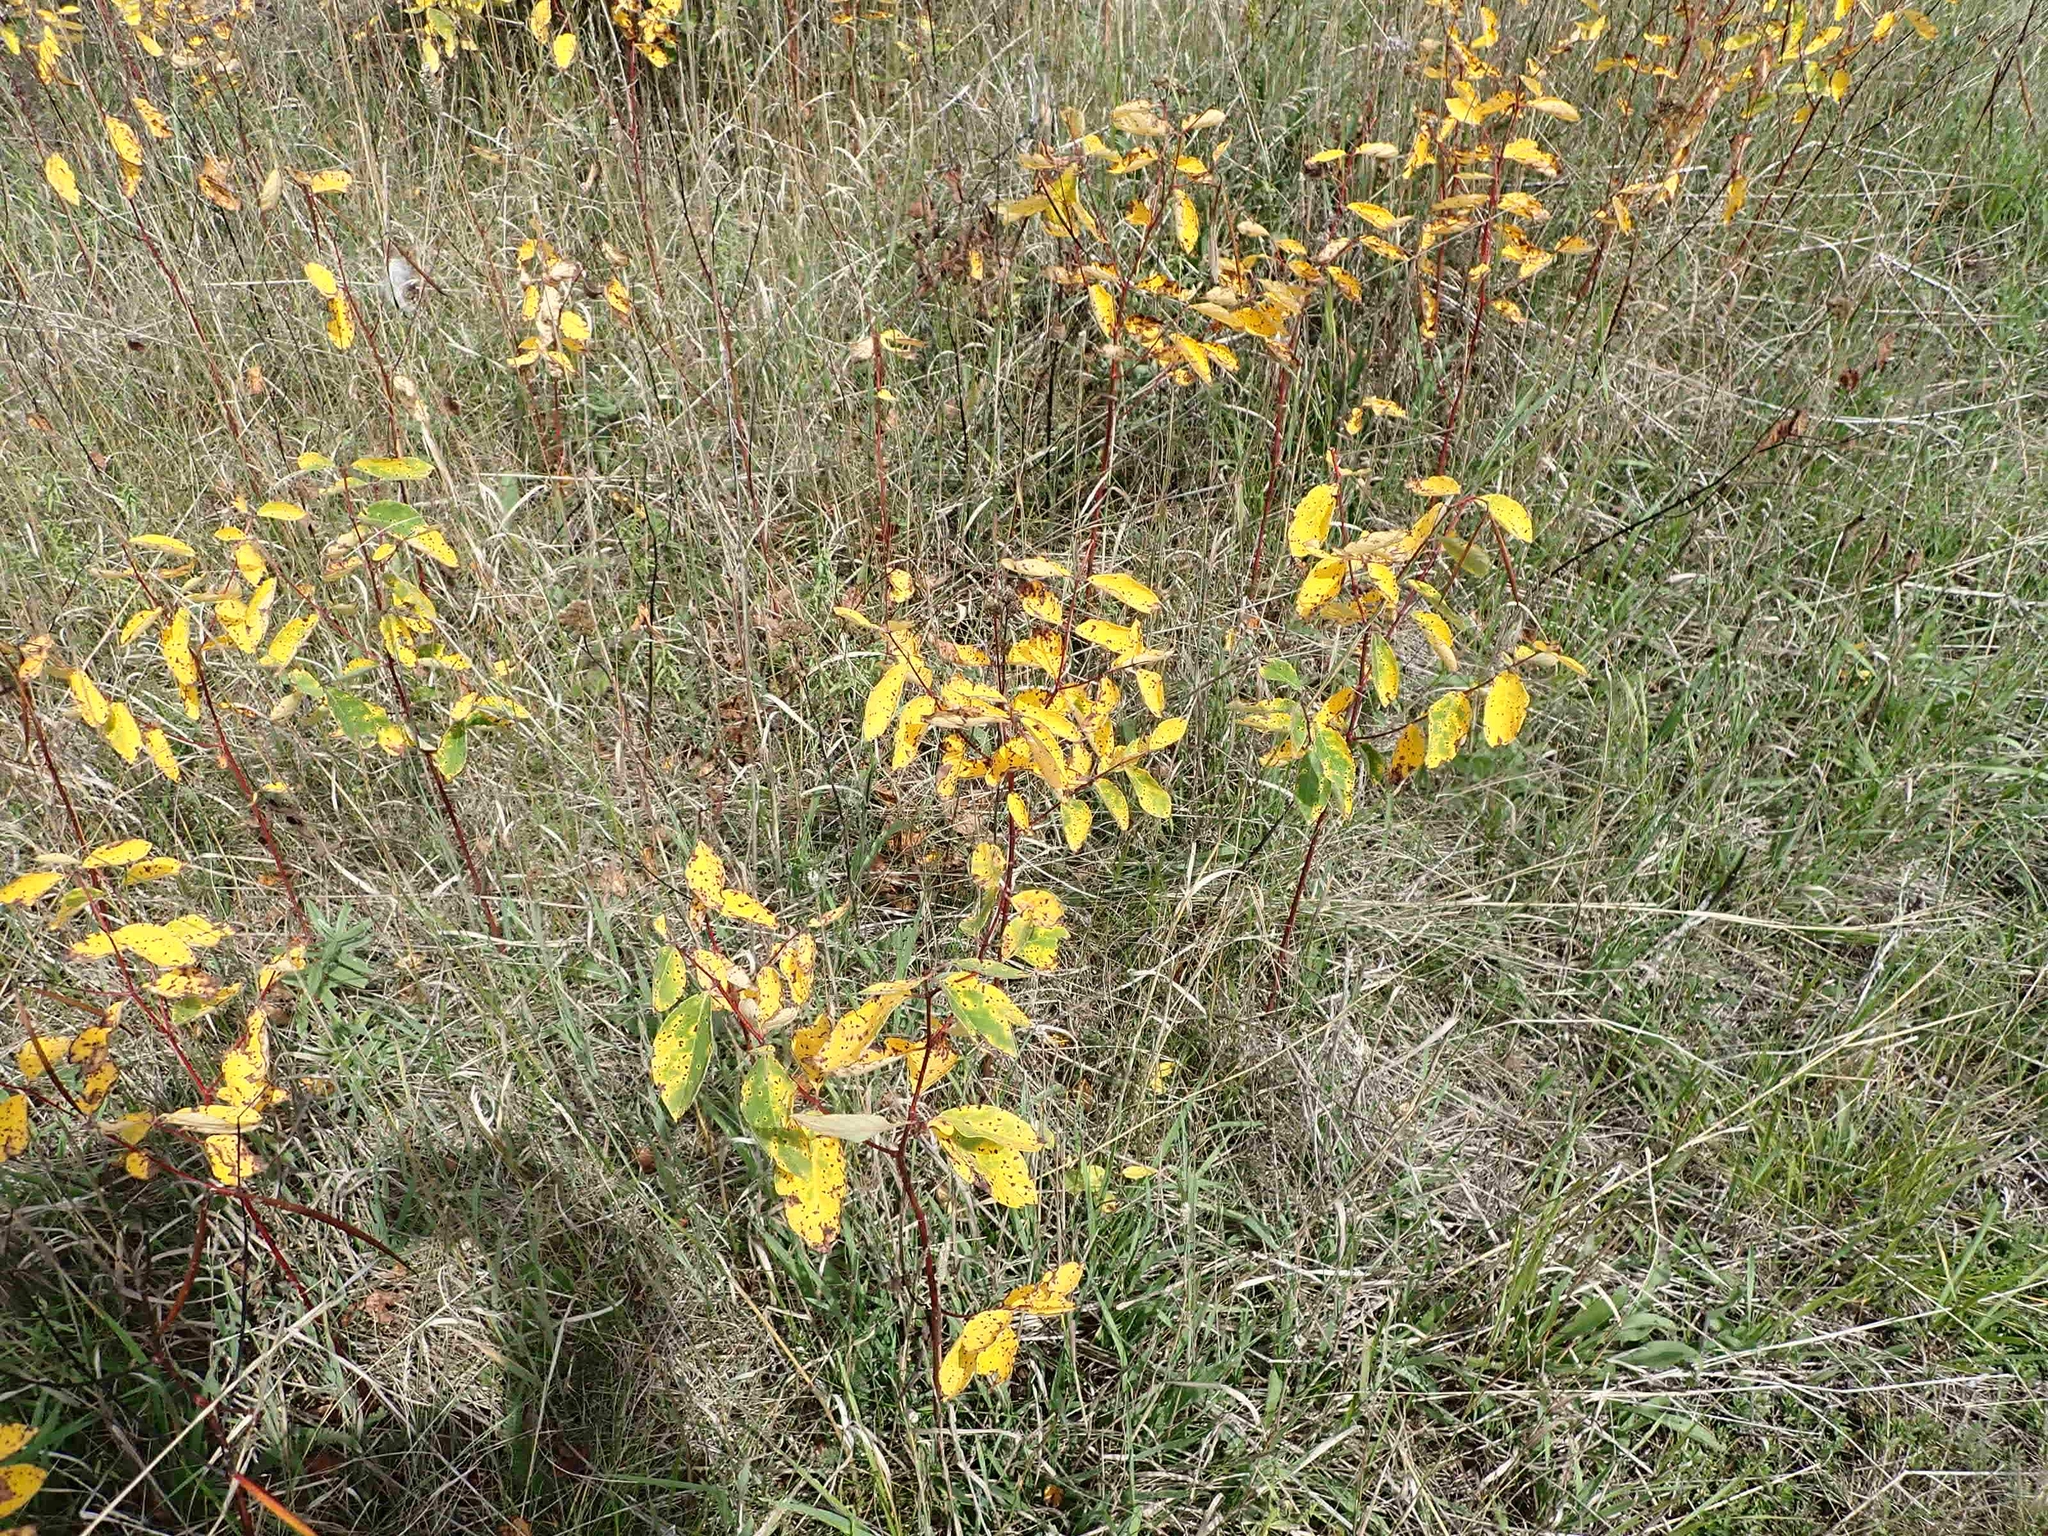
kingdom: Plantae
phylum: Tracheophyta
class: Magnoliopsida
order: Gentianales
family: Apocynaceae
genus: Apocynum
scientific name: Apocynum androsaemifolium
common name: Spreading dogbane
